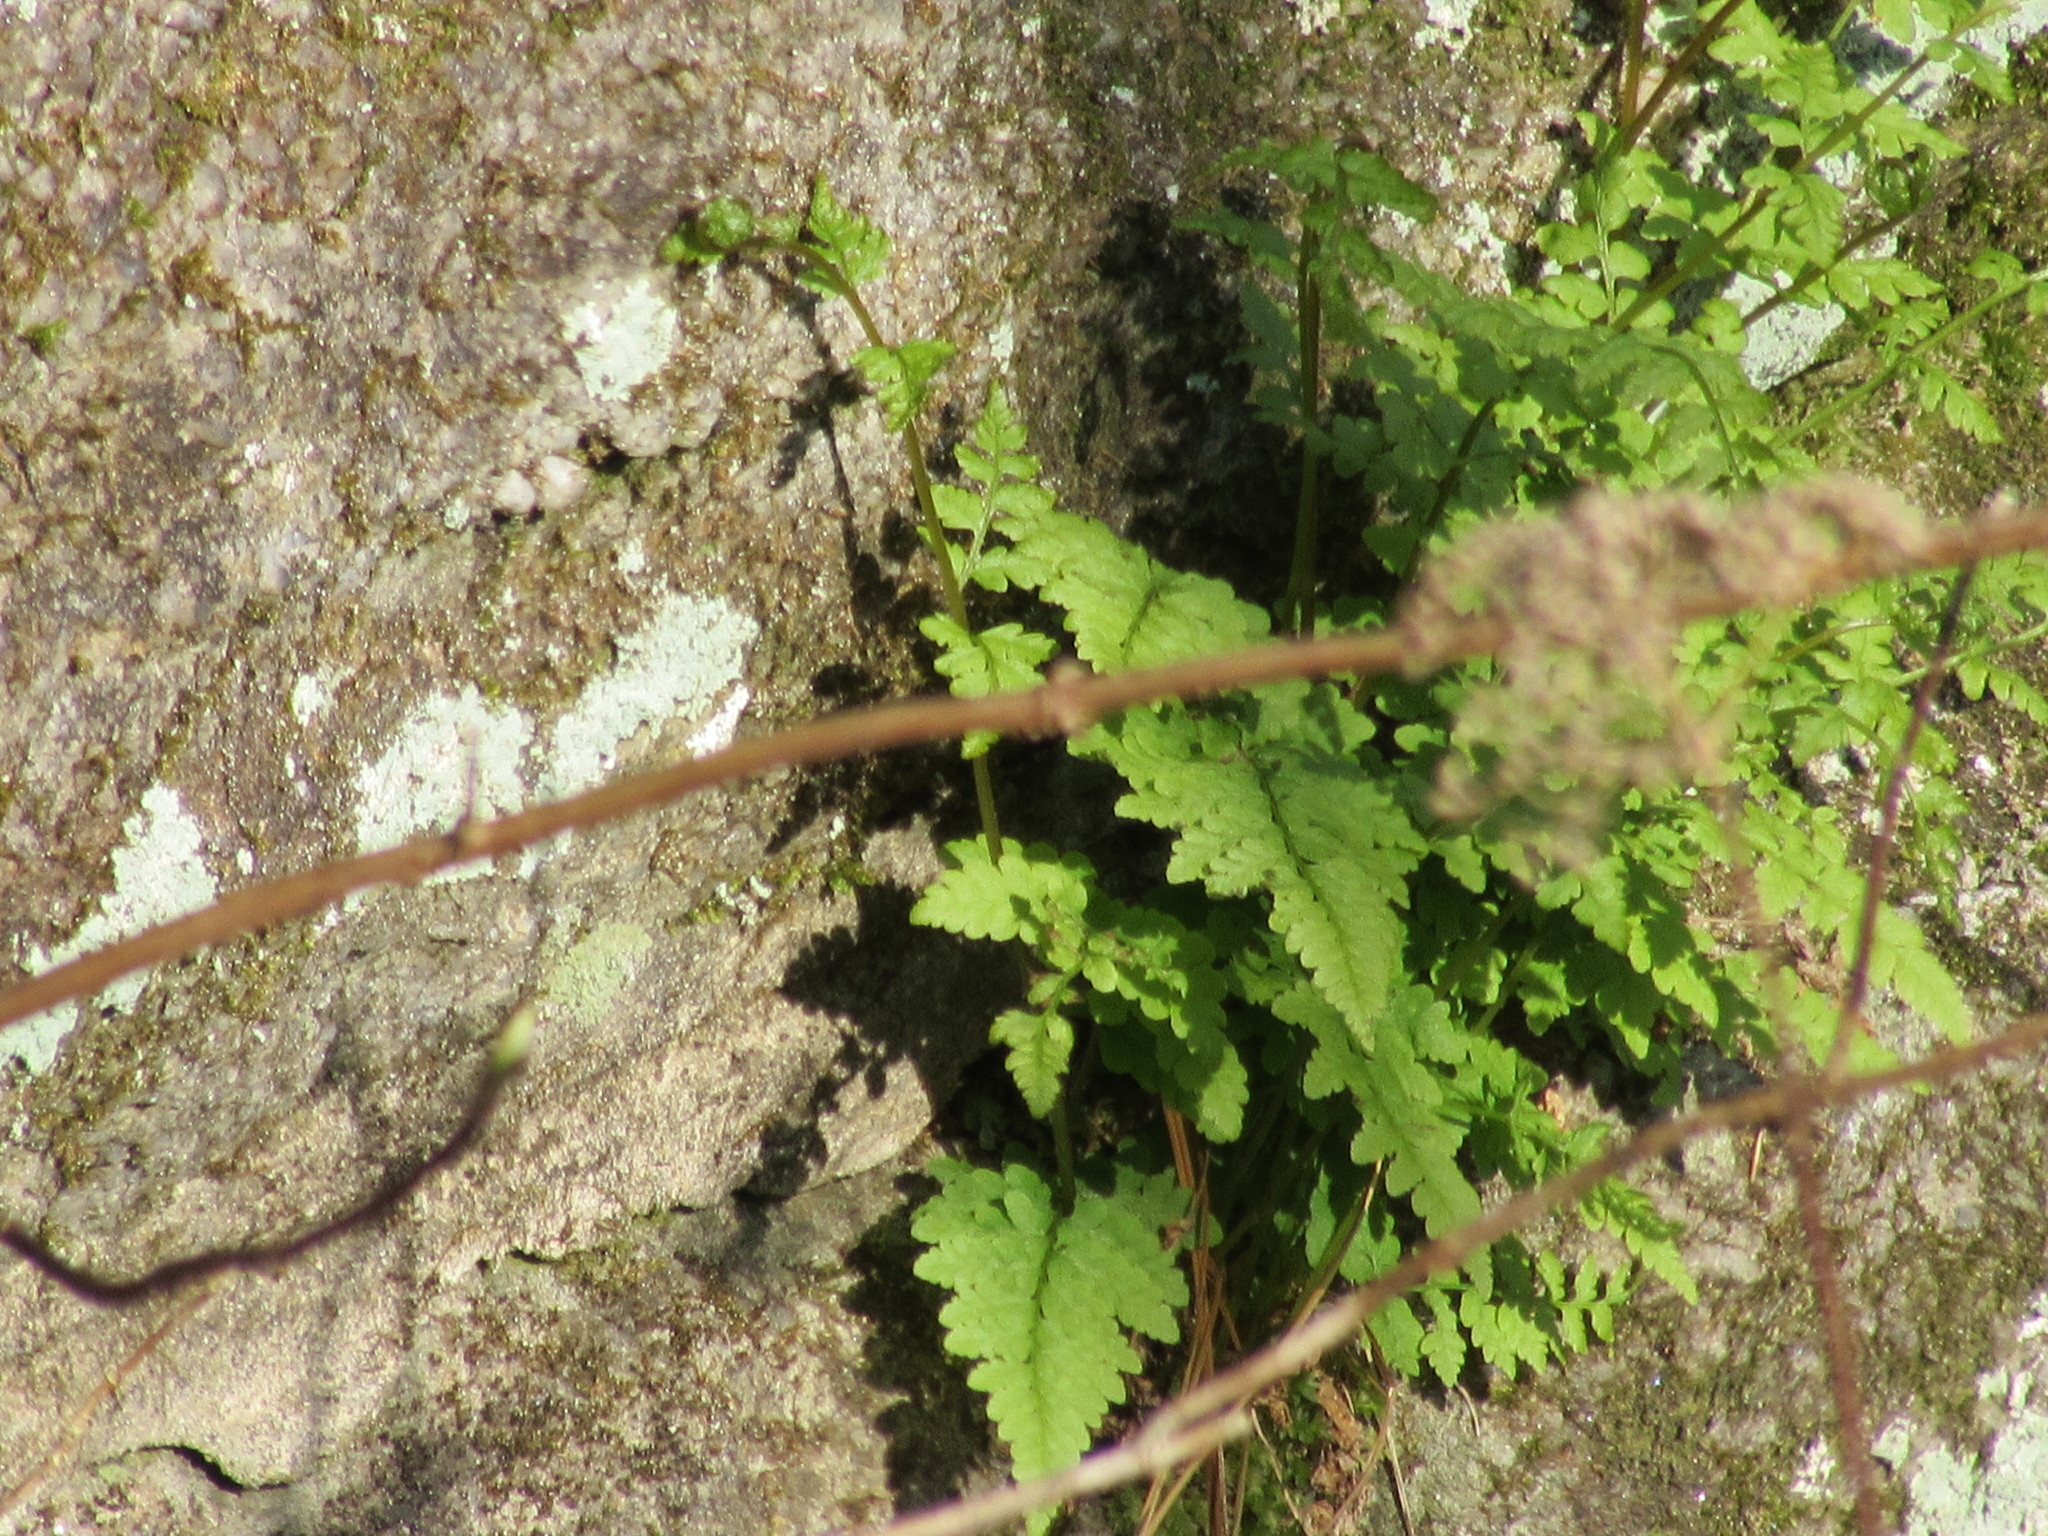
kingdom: Plantae
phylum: Tracheophyta
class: Polypodiopsida
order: Polypodiales
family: Cystopteridaceae
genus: Cystopteris
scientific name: Cystopteris tenuis
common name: Mackay's brittle fern
